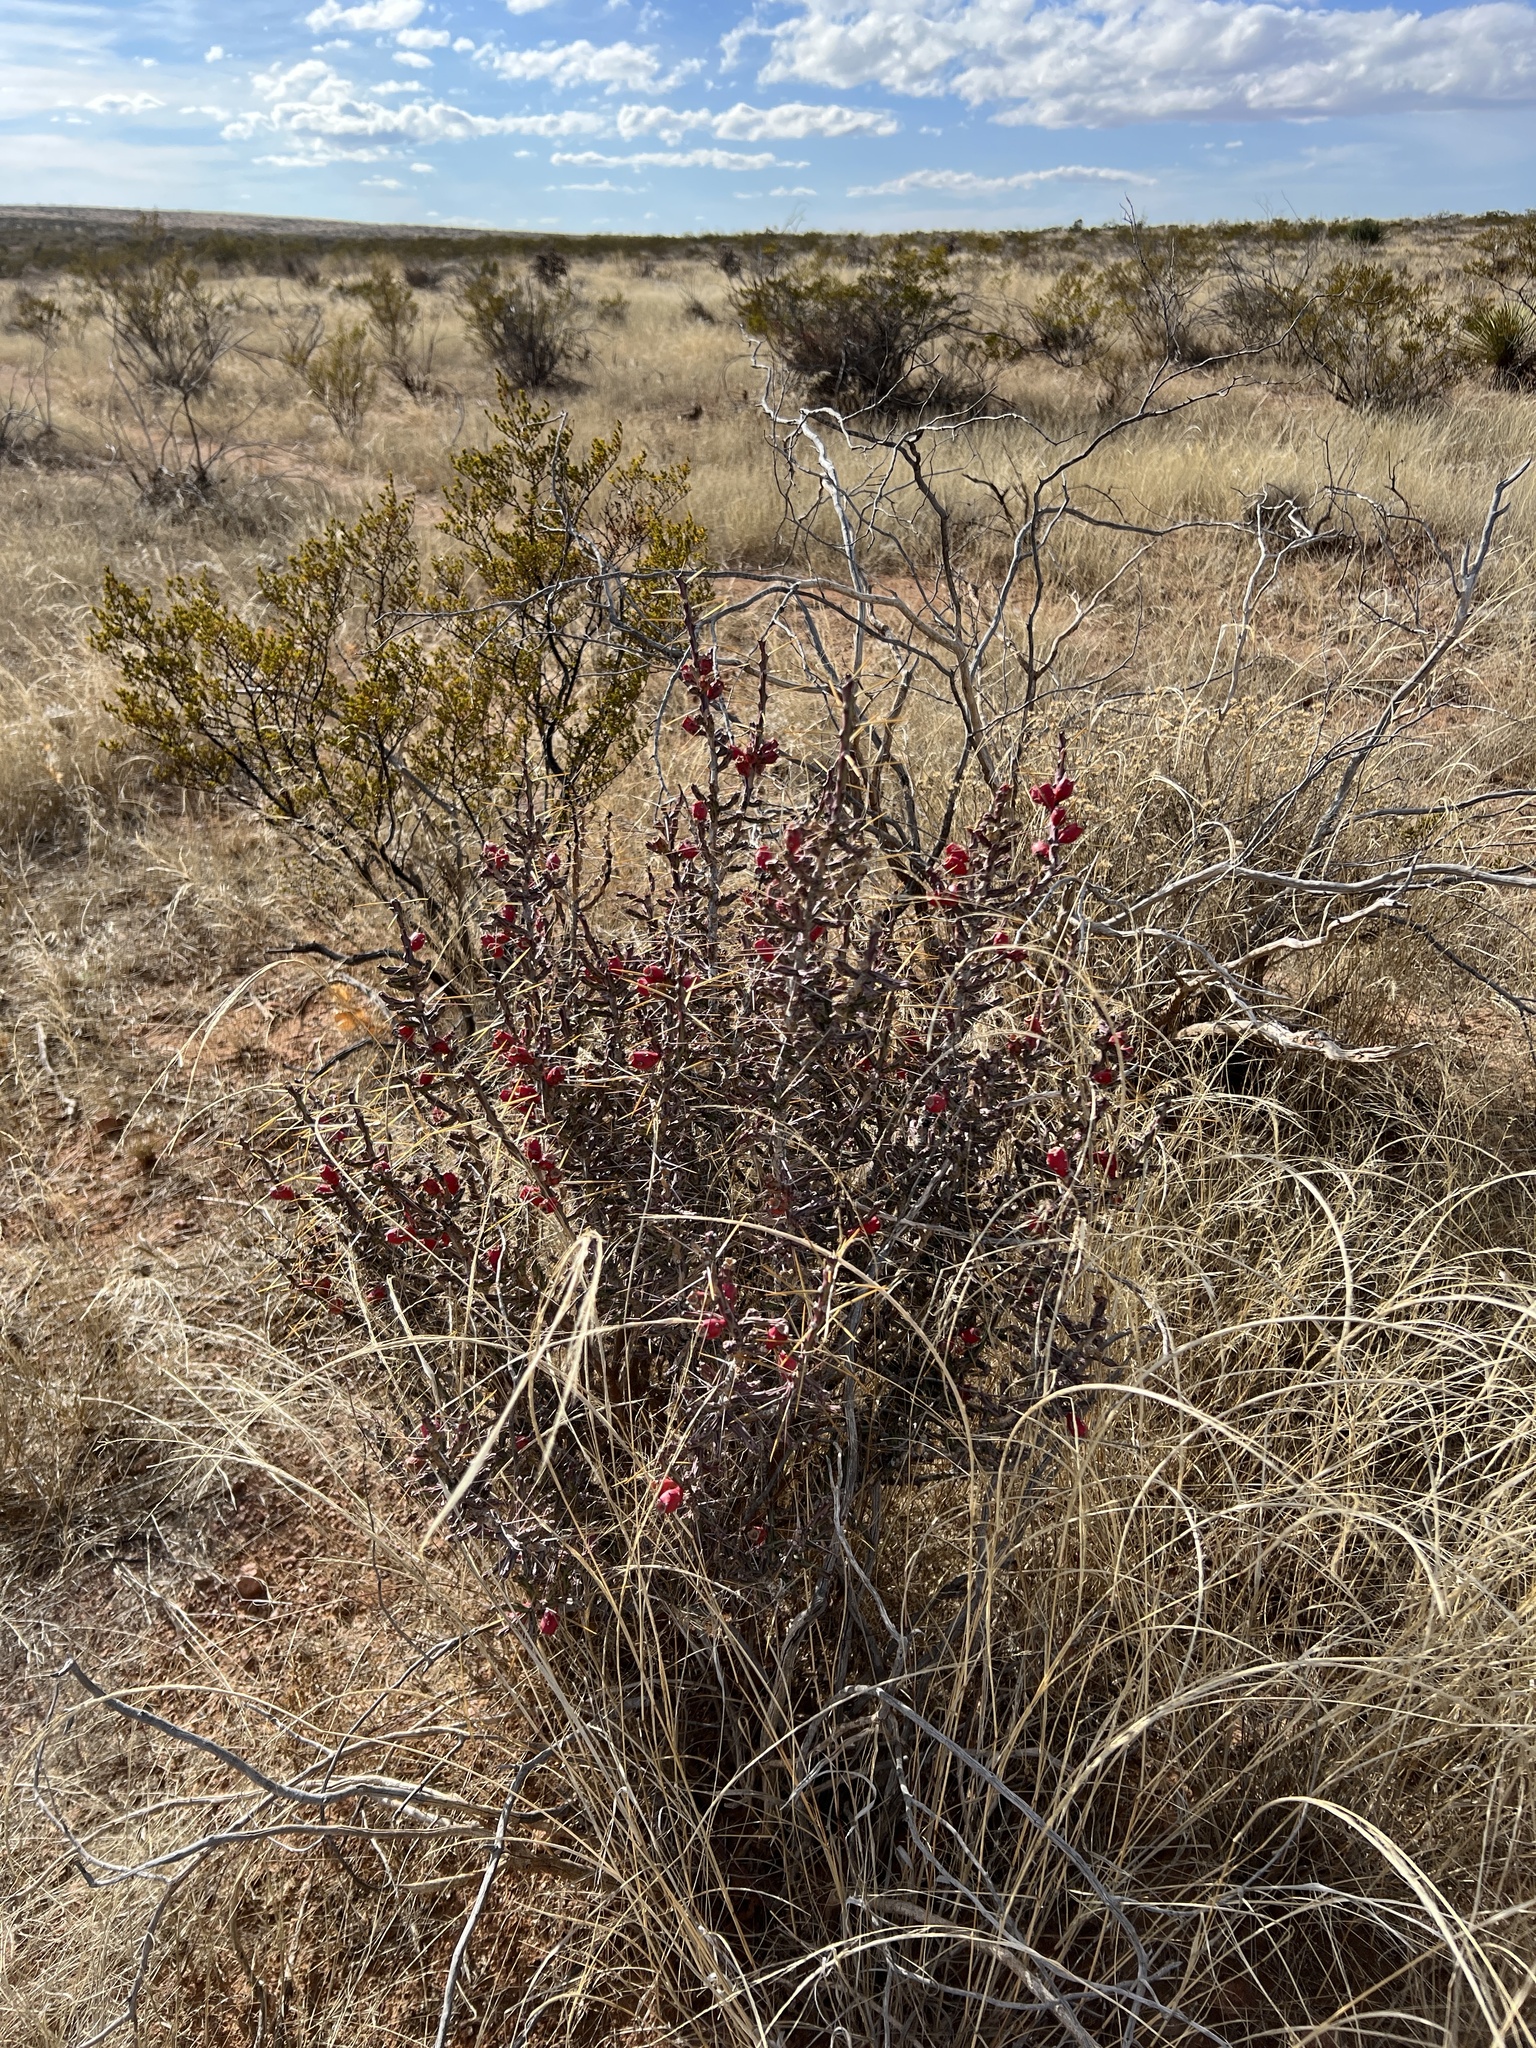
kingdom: Plantae
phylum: Tracheophyta
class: Magnoliopsida
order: Caryophyllales
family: Cactaceae
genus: Cylindropuntia
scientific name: Cylindropuntia leptocaulis
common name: Christmas cactus
